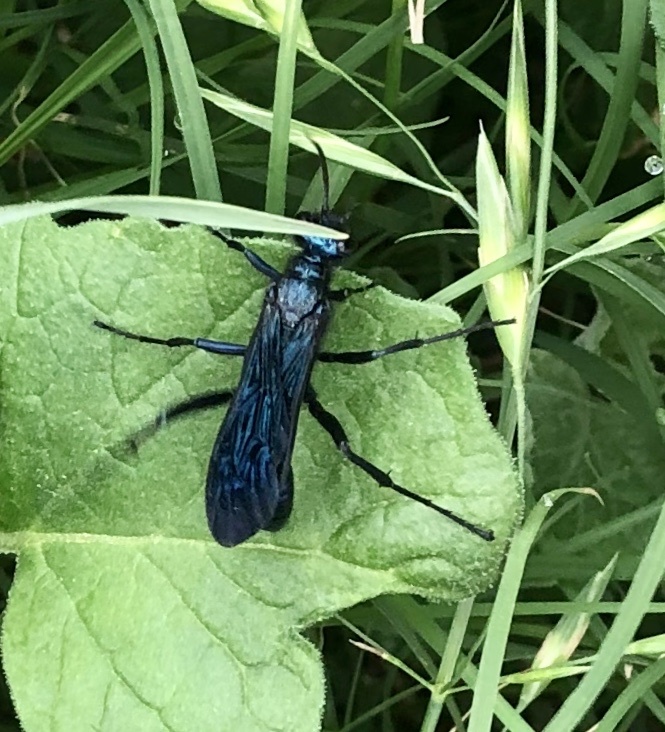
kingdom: Animalia
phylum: Arthropoda
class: Insecta
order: Hymenoptera
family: Sphecidae
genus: Chalybion
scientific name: Chalybion californicum
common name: Mud dauber
